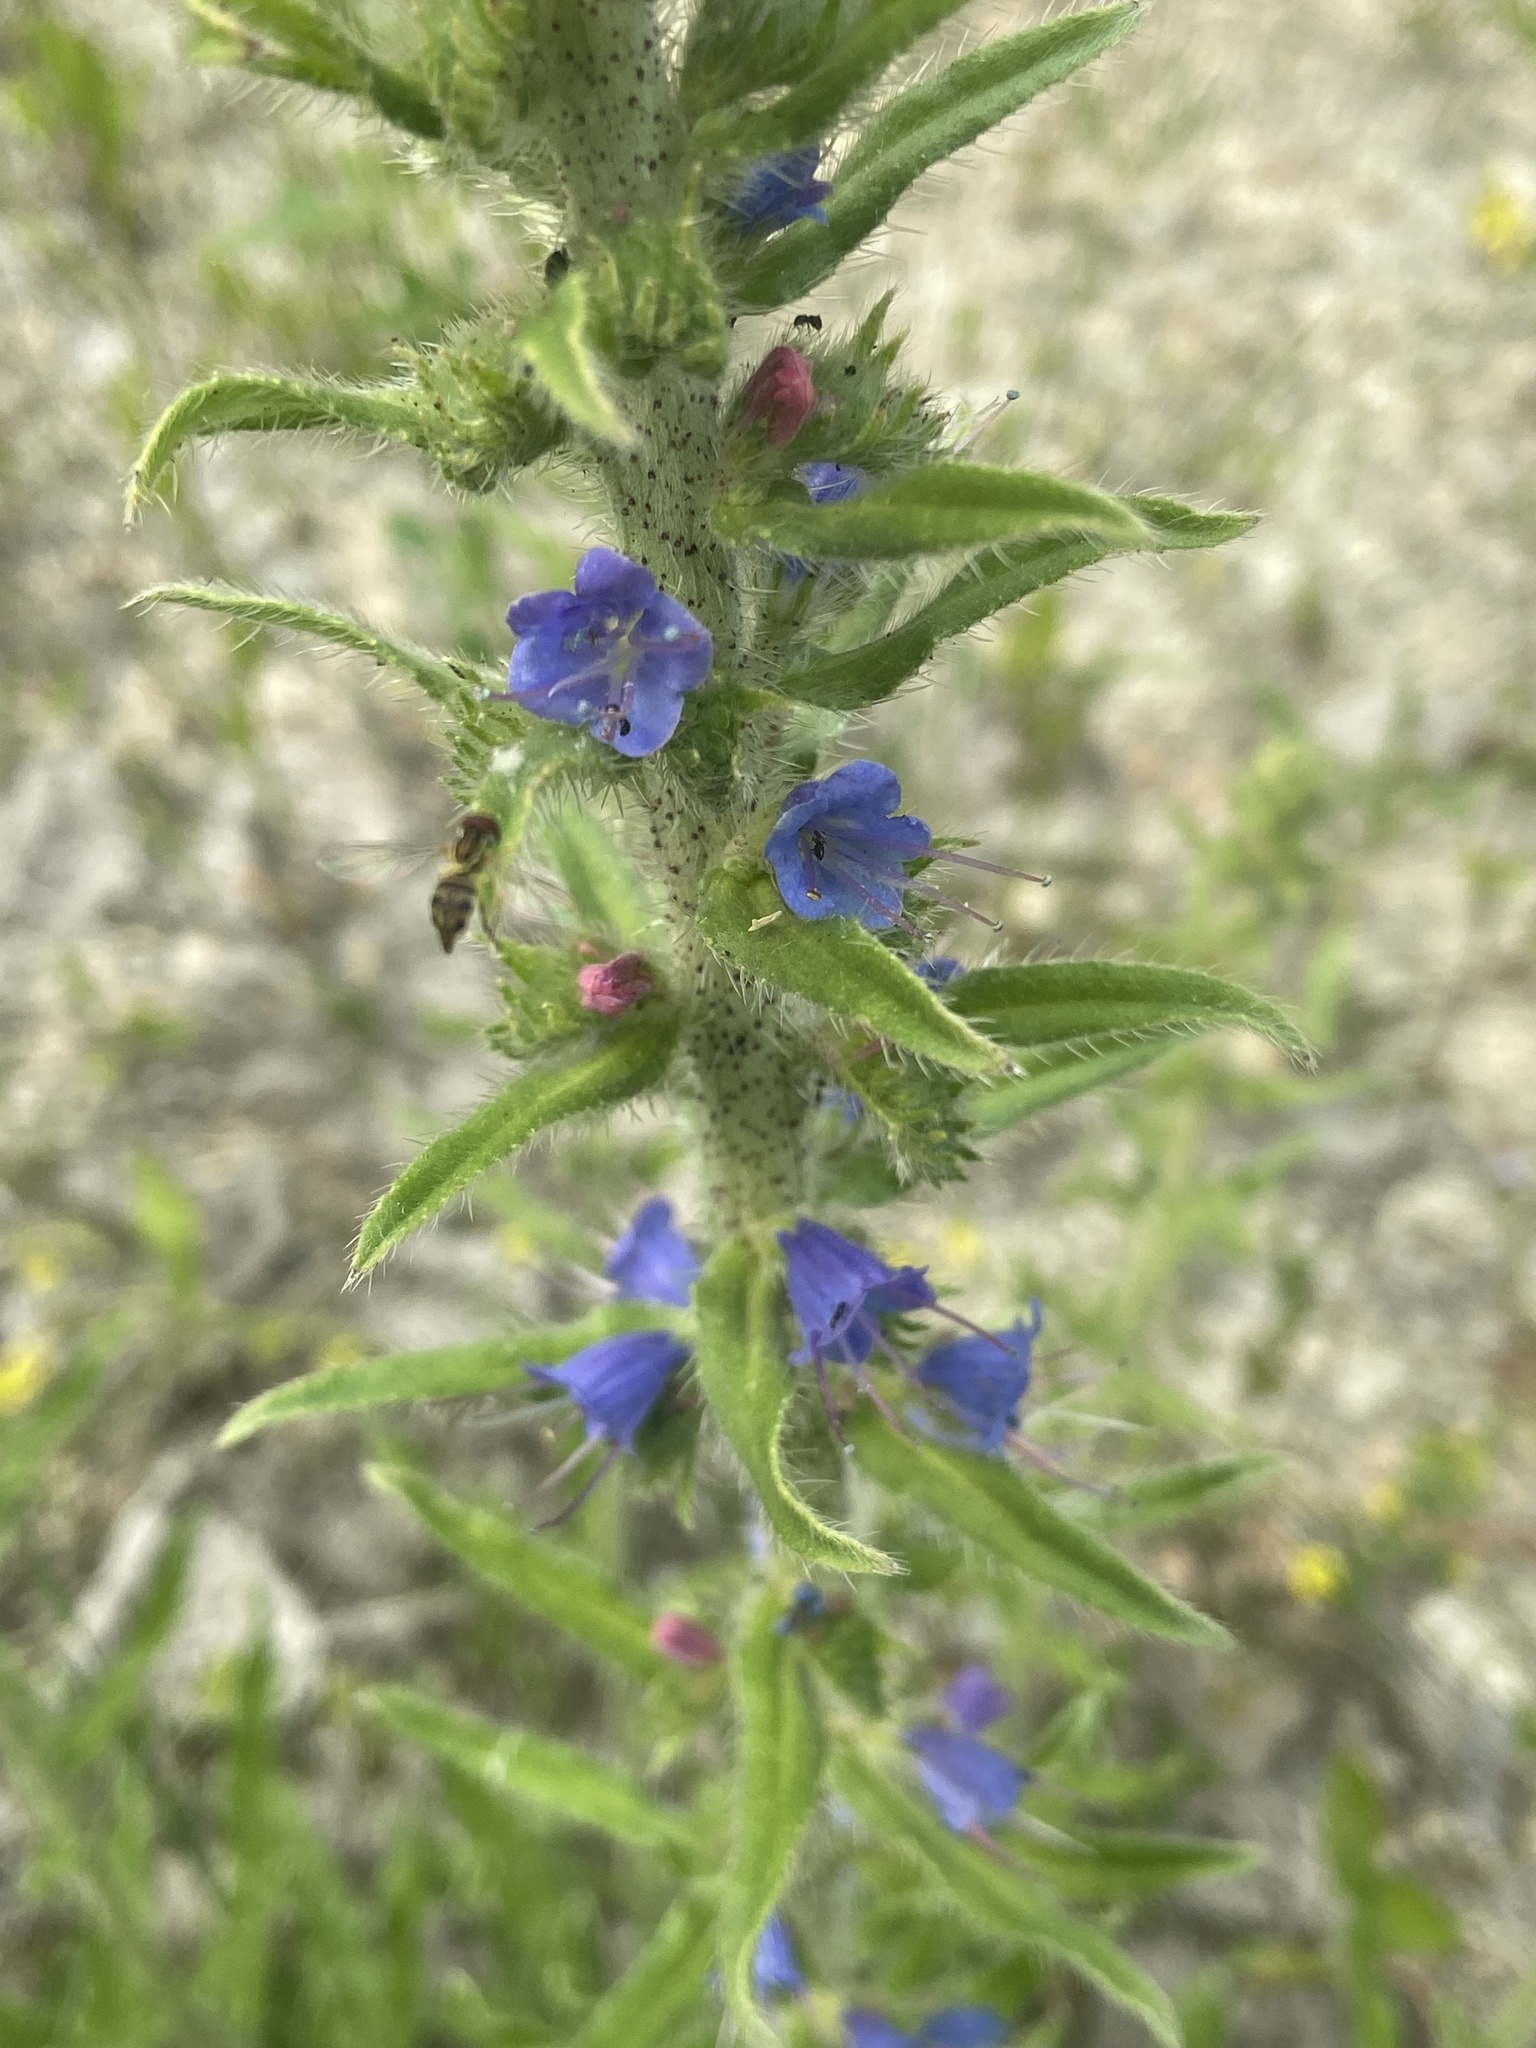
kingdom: Plantae
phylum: Tracheophyta
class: Magnoliopsida
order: Boraginales
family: Boraginaceae
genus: Echium
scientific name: Echium vulgare
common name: Common viper's bugloss
